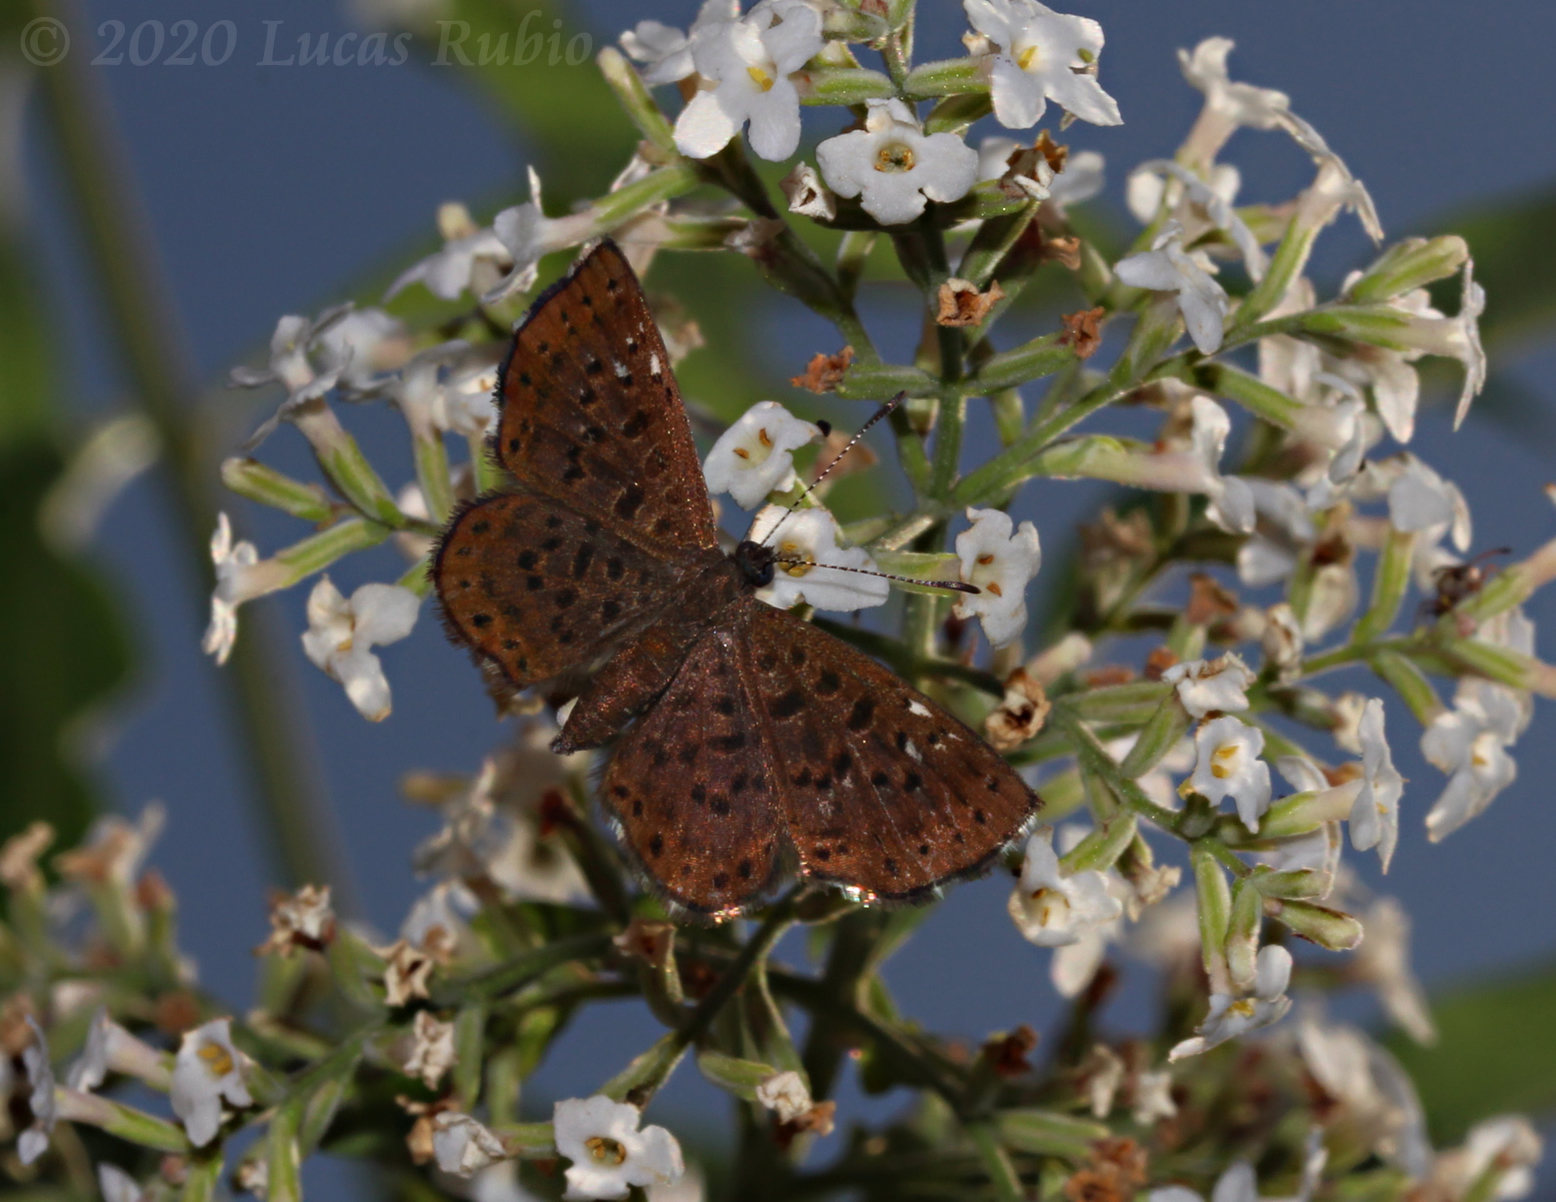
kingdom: Animalia
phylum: Arthropoda
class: Insecta
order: Lepidoptera
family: Riodinidae
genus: Teenie
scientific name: Teenie tinea
